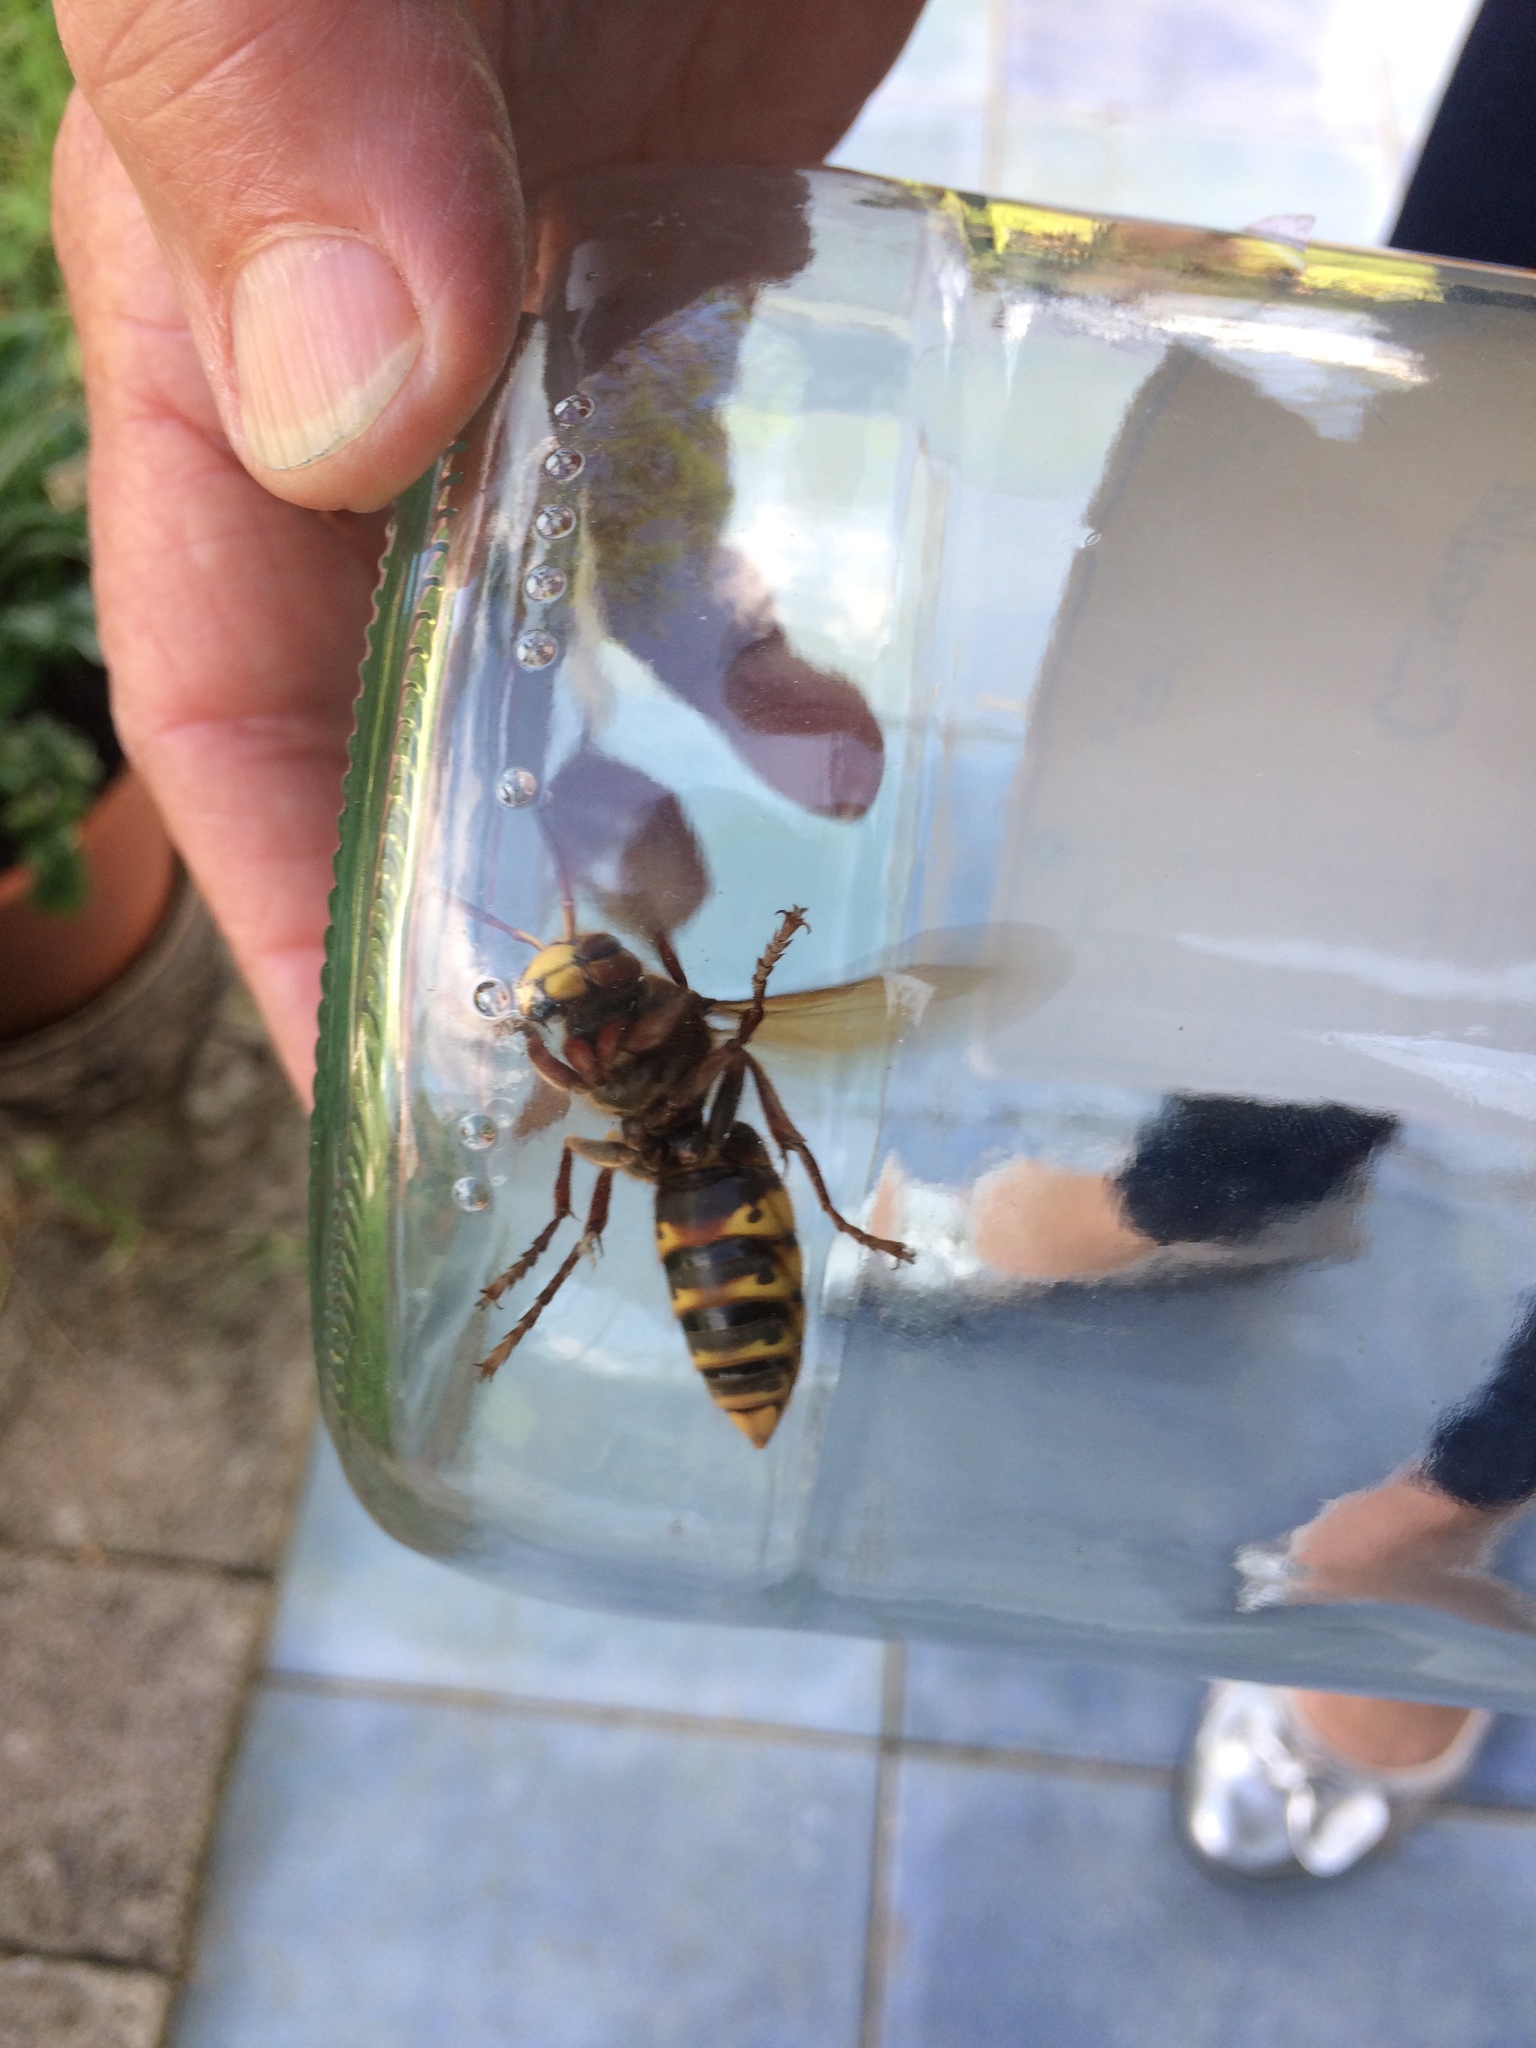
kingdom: Animalia
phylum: Arthropoda
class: Insecta
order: Hymenoptera
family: Vespidae
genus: Vespa
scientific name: Vespa crabro
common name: Hornet
